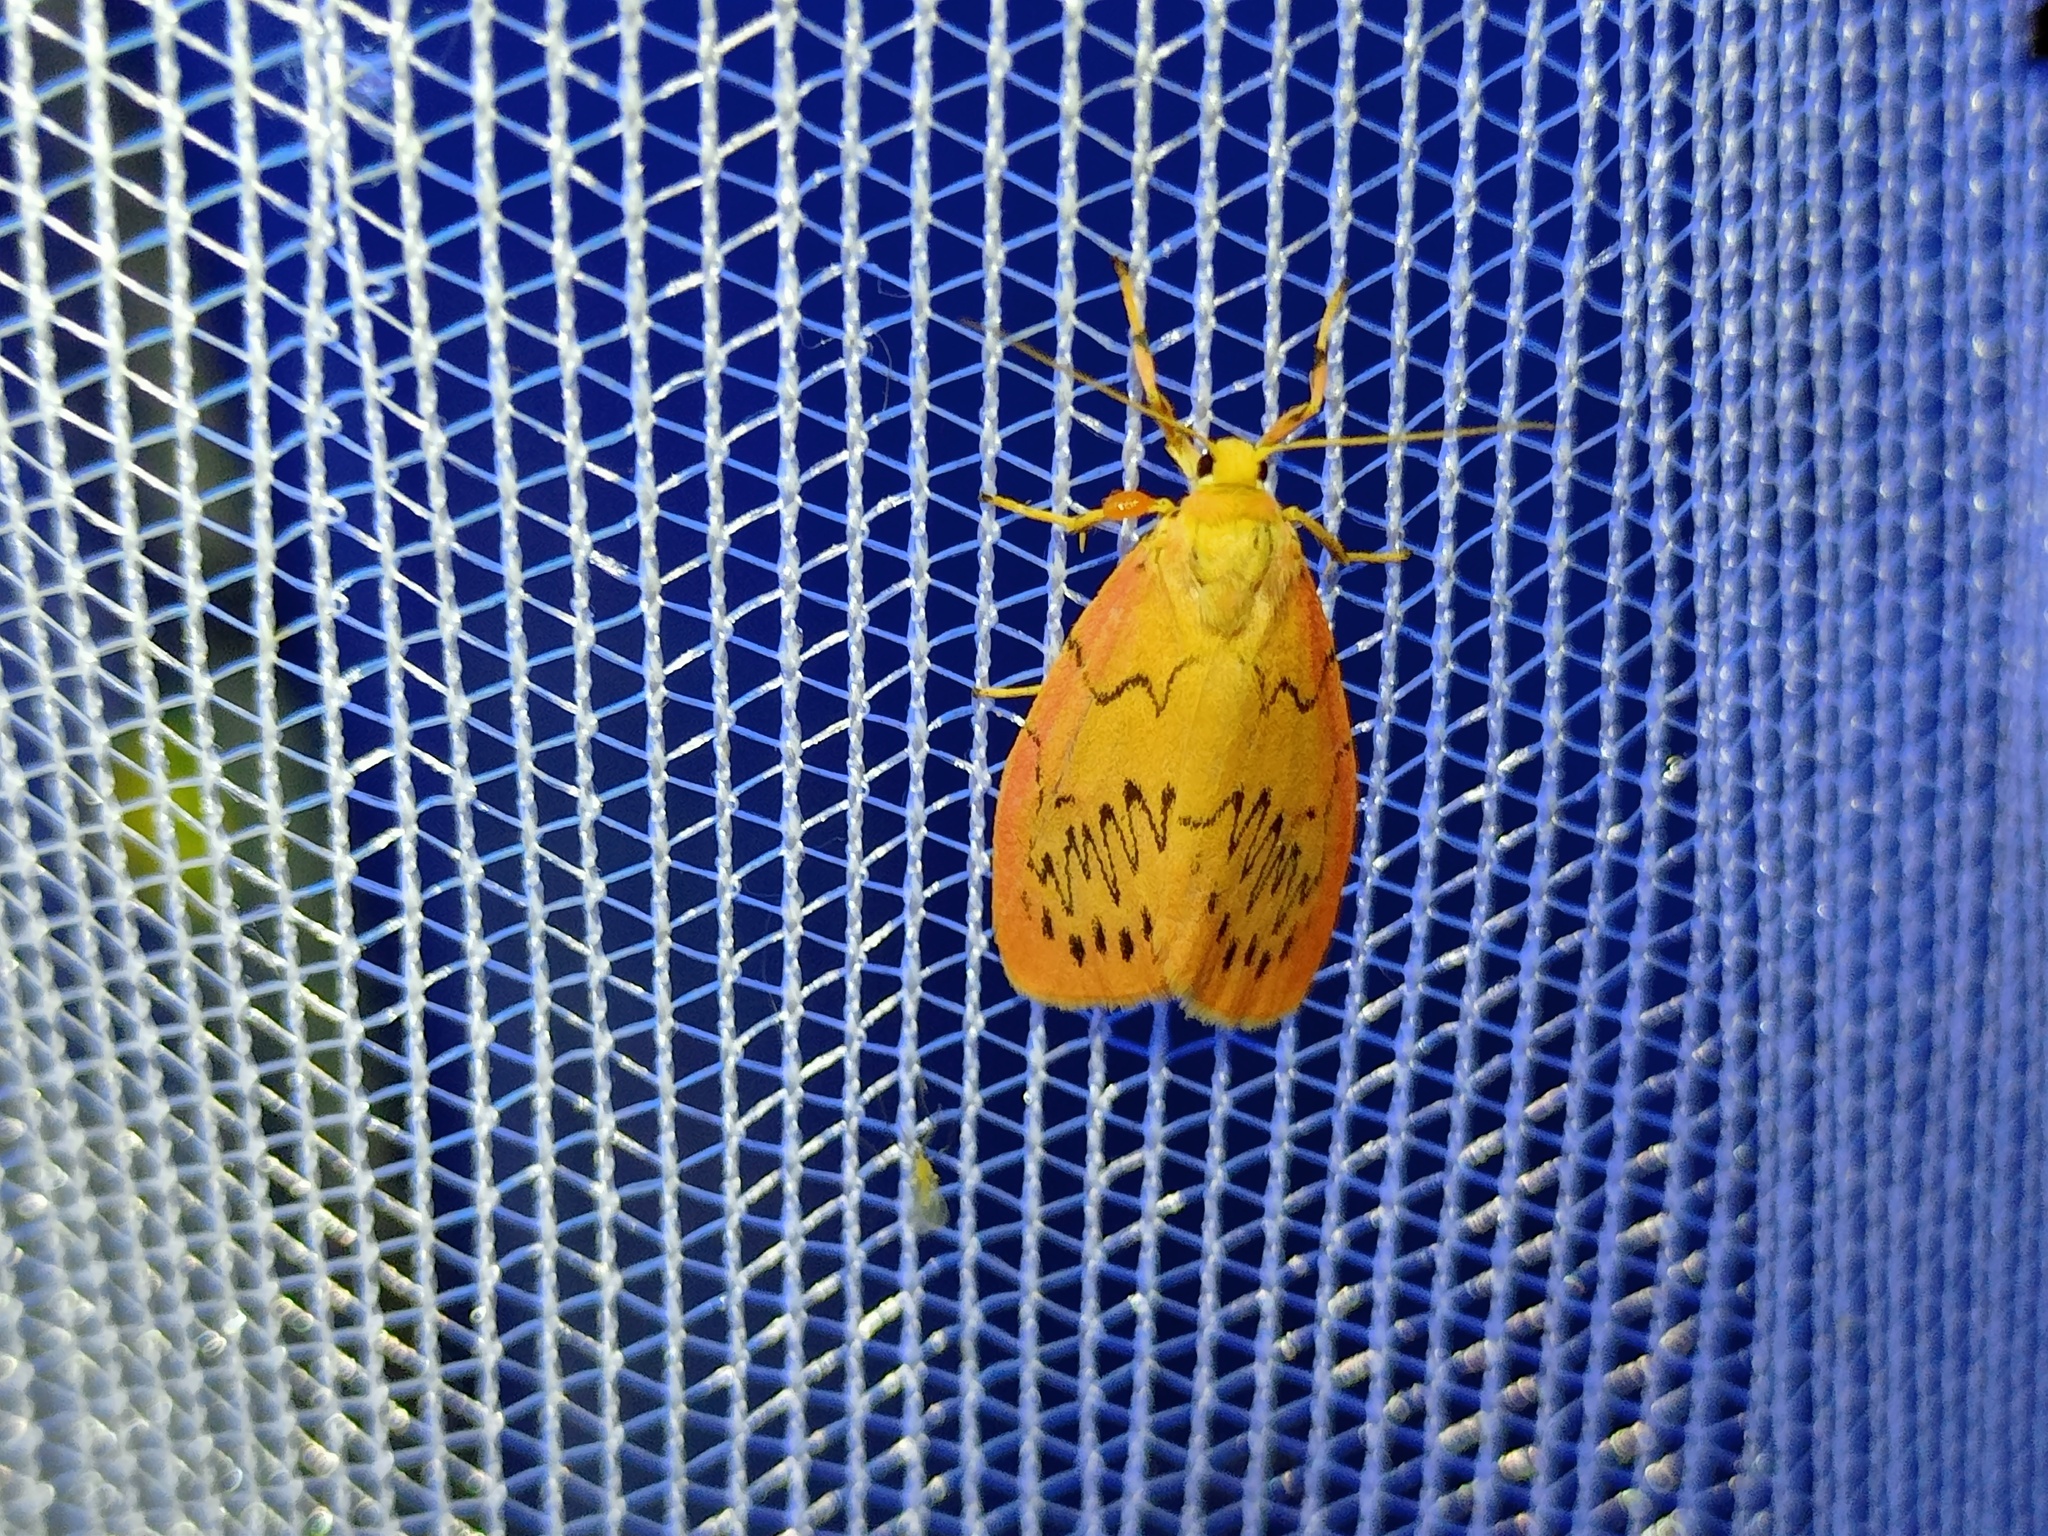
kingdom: Animalia
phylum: Arthropoda
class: Insecta
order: Lepidoptera
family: Erebidae
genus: Miltochrista
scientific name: Miltochrista miniata
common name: Rosy footman
